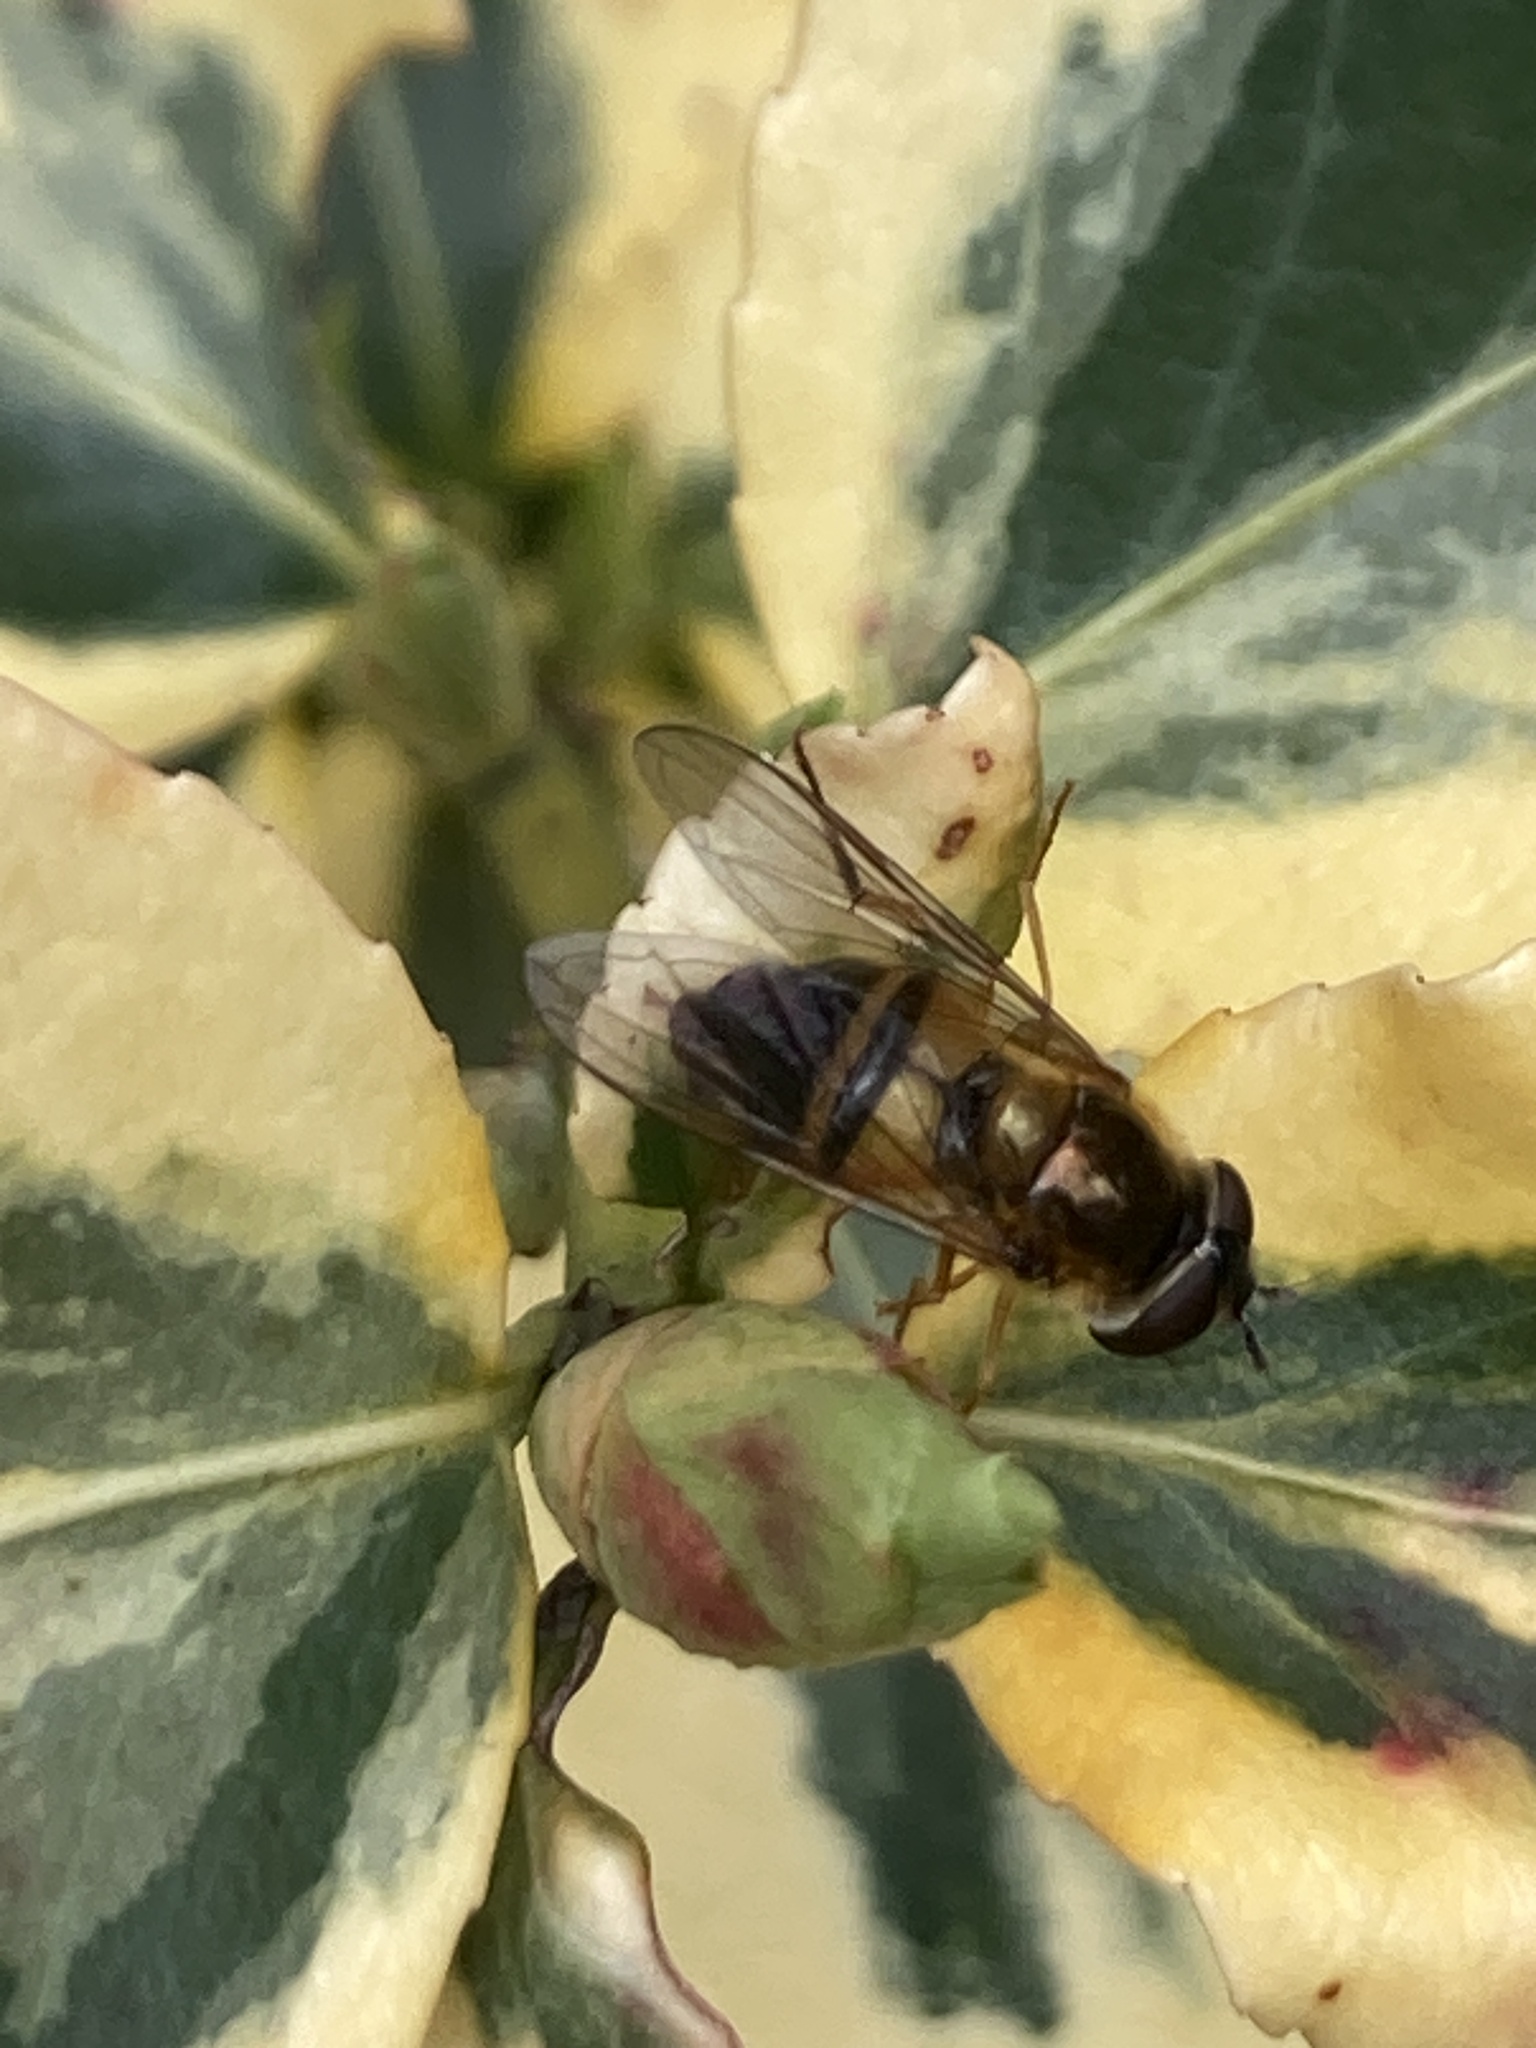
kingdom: Animalia
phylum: Arthropoda
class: Insecta
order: Diptera
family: Syrphidae
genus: Epistrophe
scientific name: Epistrophe eligans
